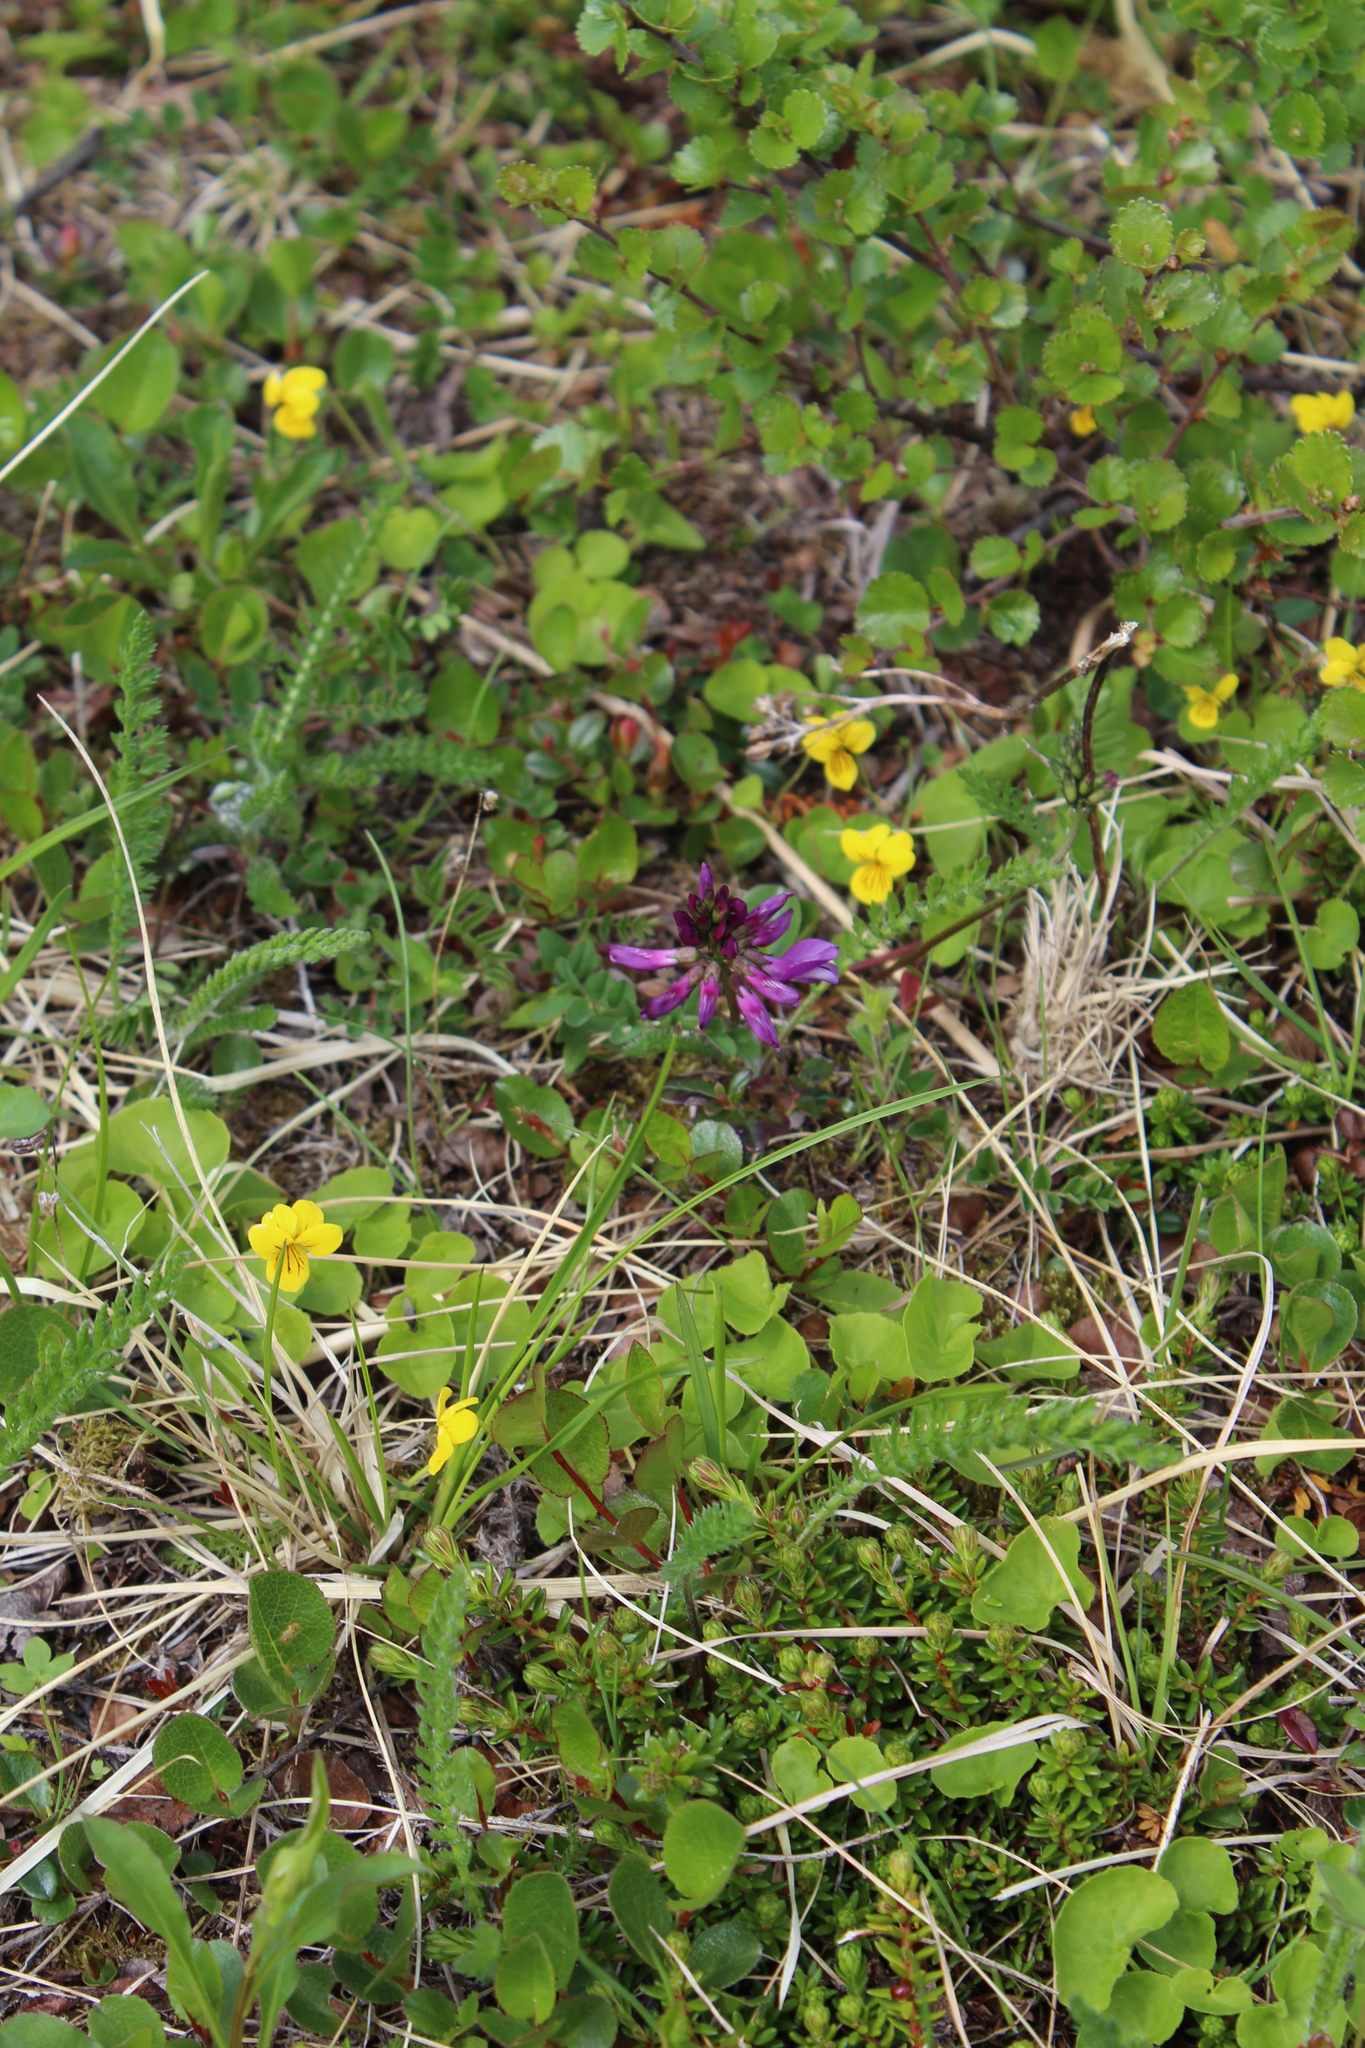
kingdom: Plantae
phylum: Tracheophyta
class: Magnoliopsida
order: Fabales
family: Fabaceae
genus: Astragalus
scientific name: Astragalus alpinus
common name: Alpine milk-vetch
